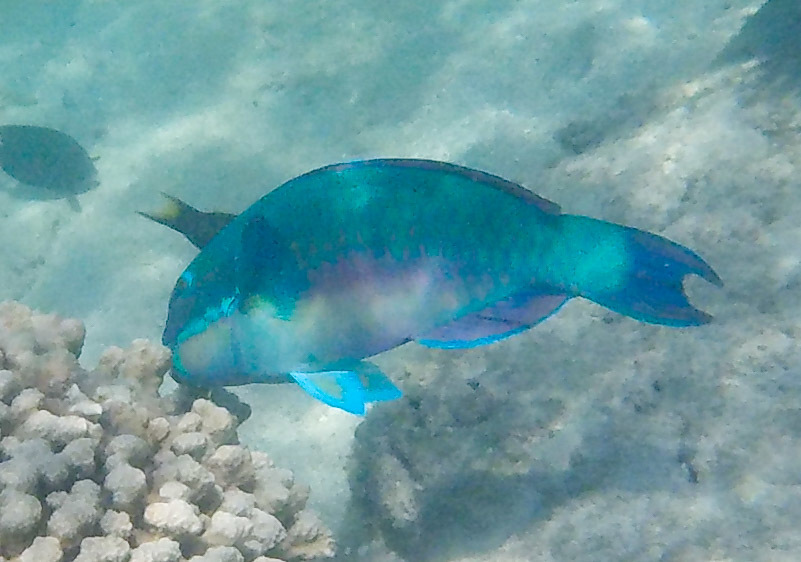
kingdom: Animalia
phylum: Chordata
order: Perciformes
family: Scaridae
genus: Chlorurus
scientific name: Chlorurus microrhinos
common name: Steephead parrotfish
